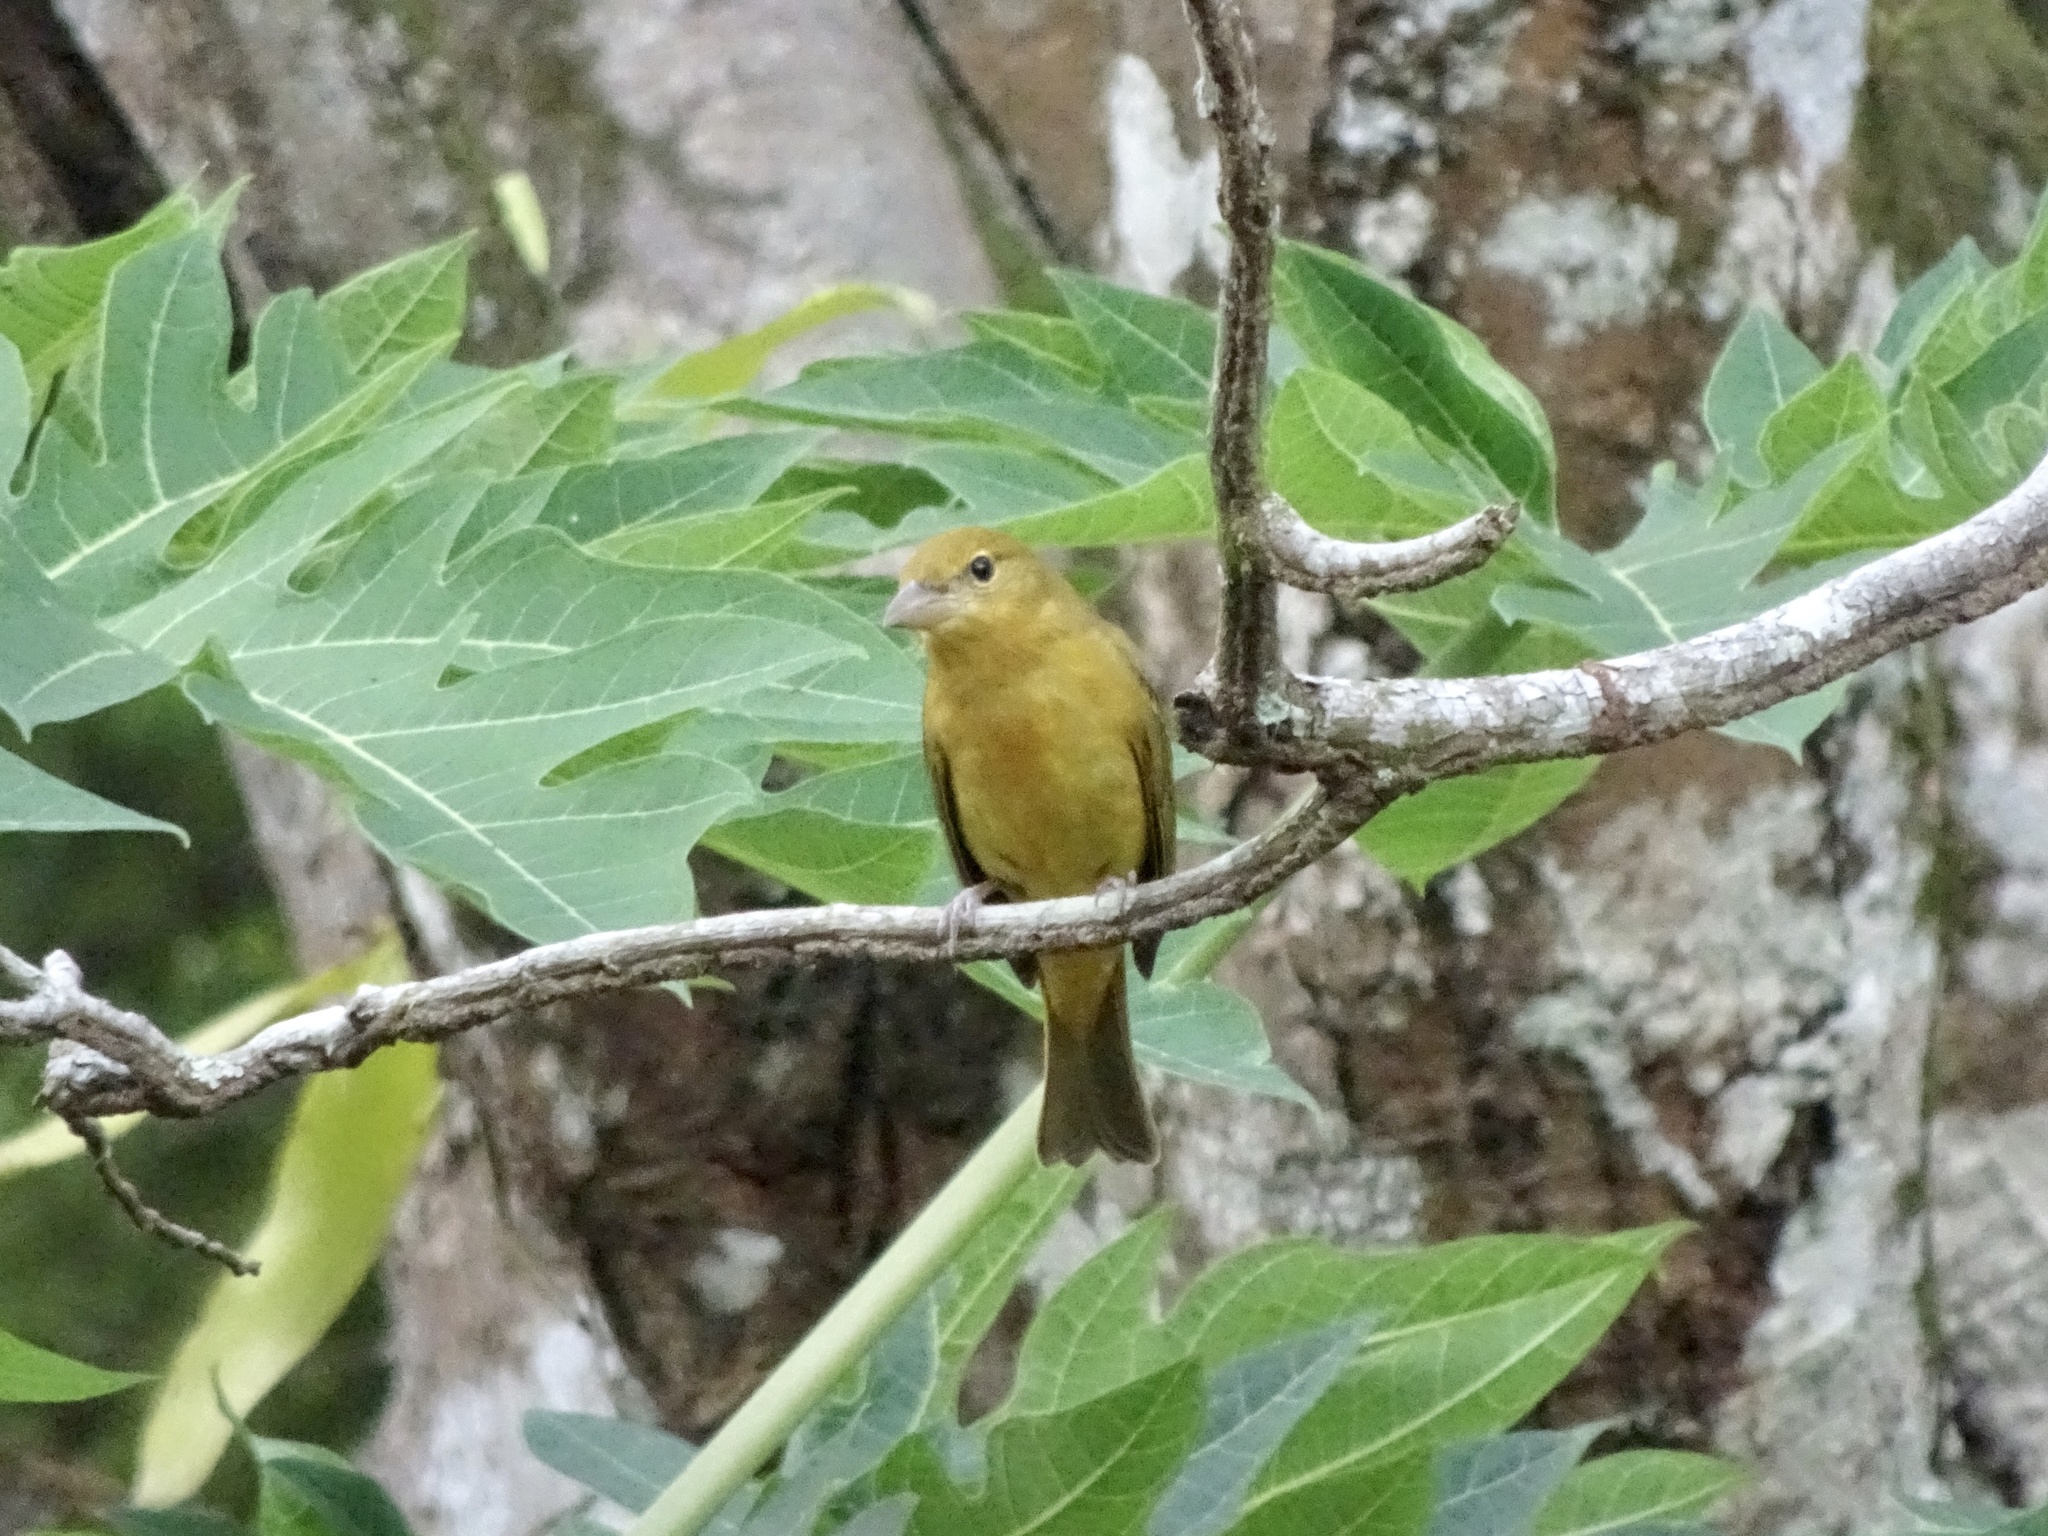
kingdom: Animalia
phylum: Chordata
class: Aves
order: Passeriformes
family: Cardinalidae
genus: Piranga
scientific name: Piranga rubra
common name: Summer tanager
